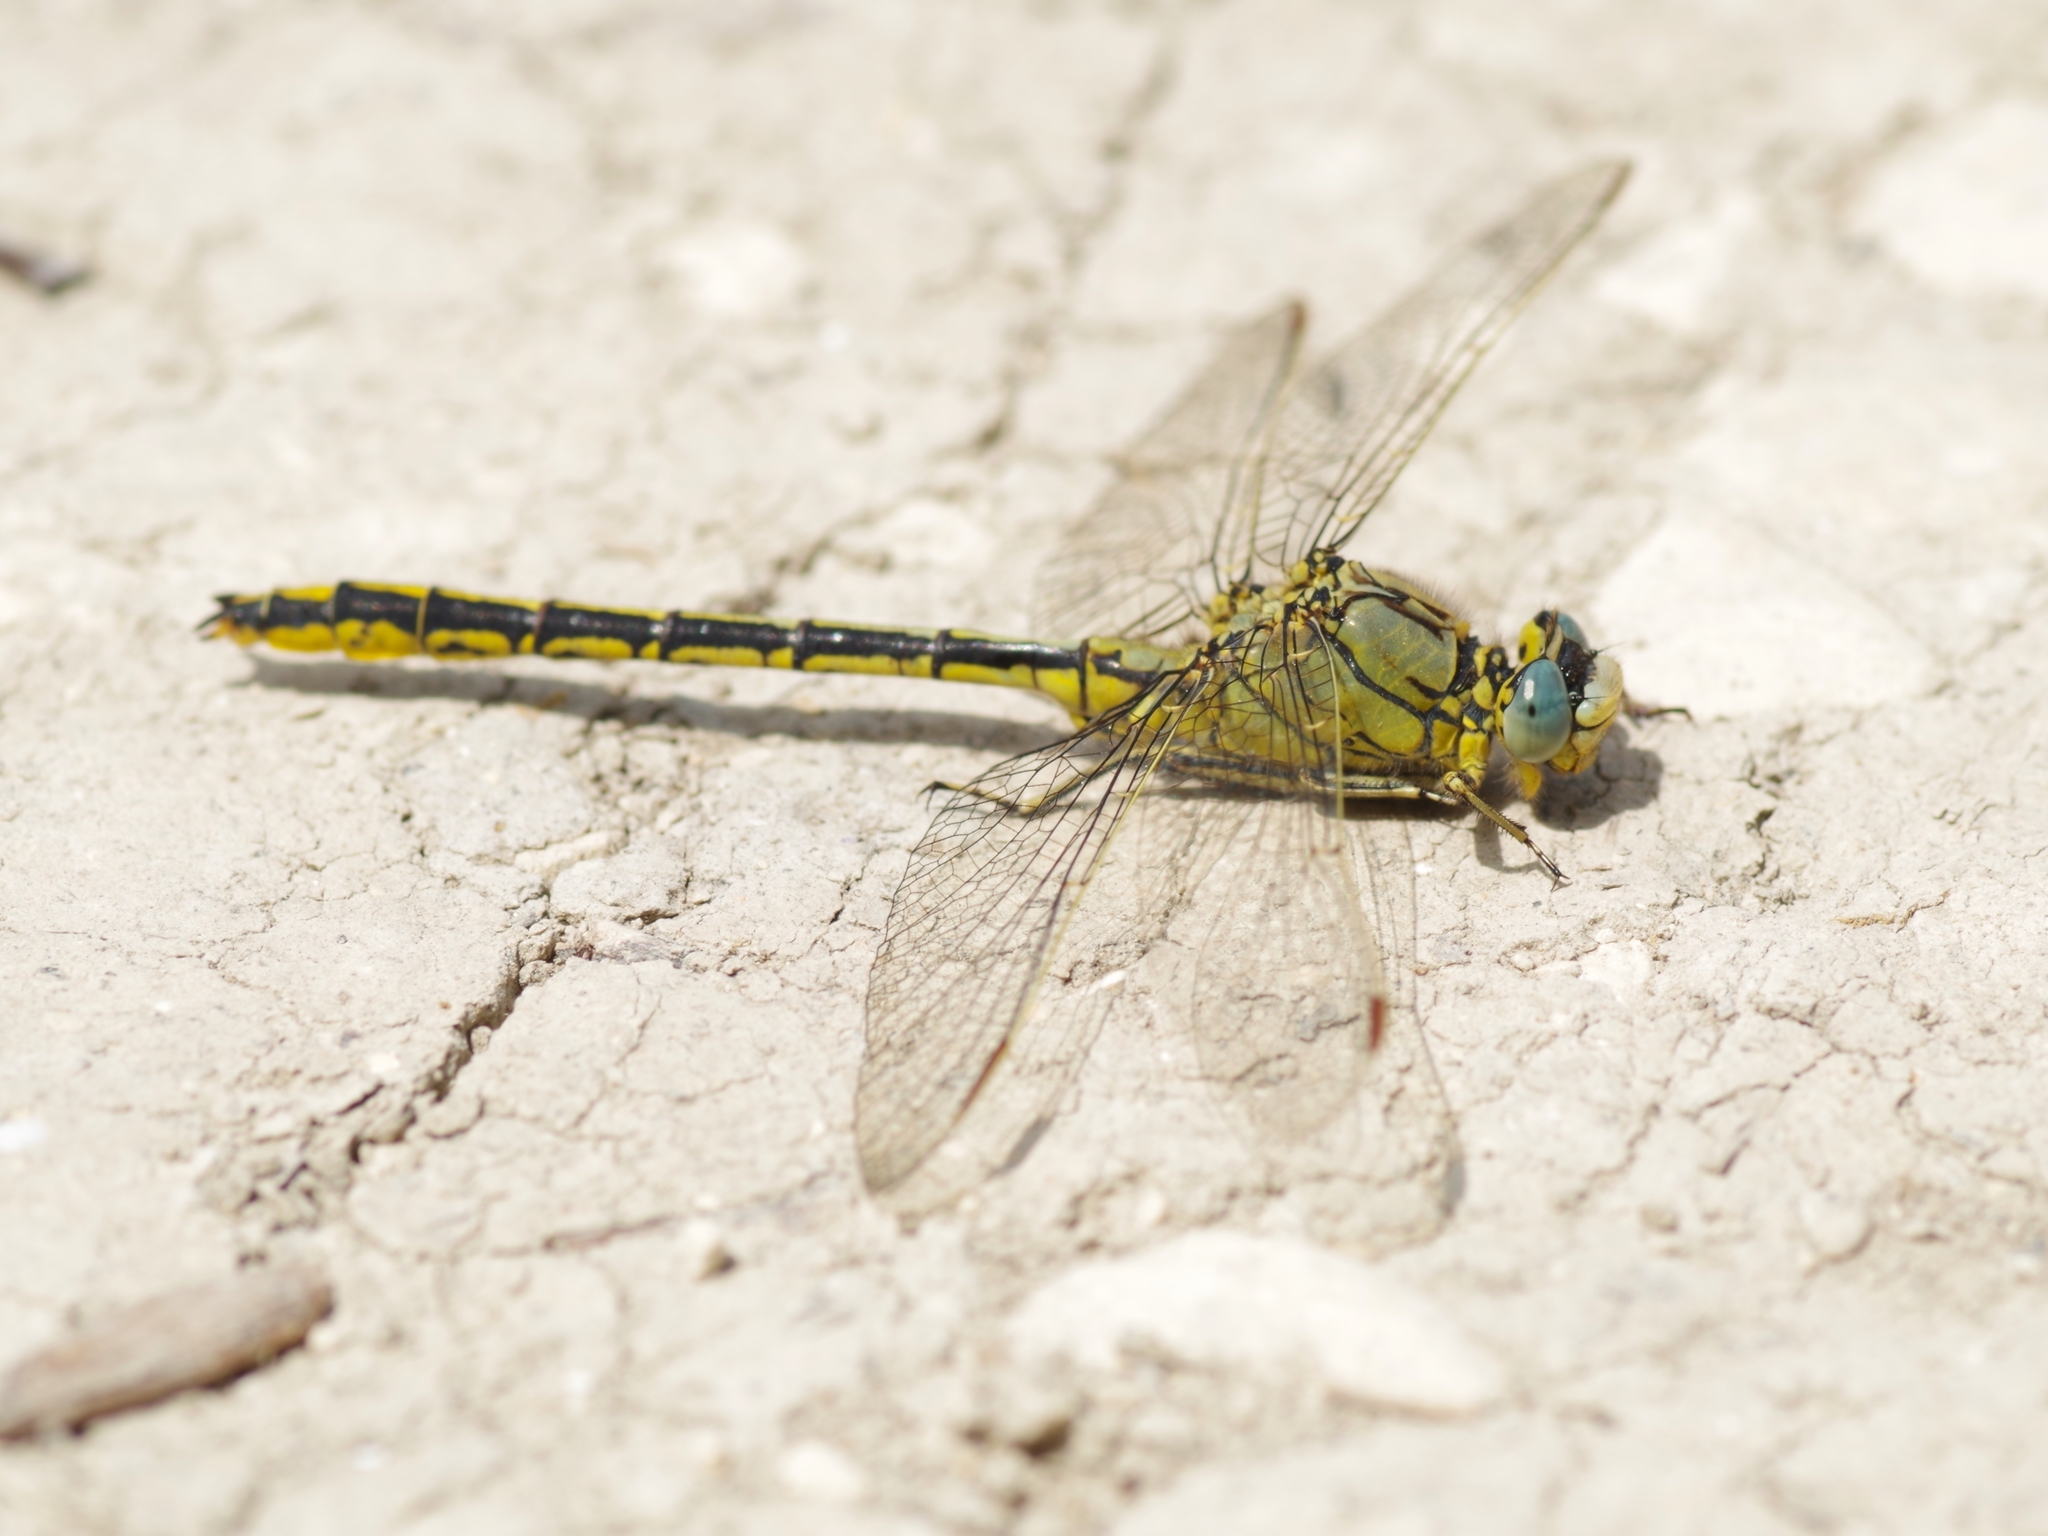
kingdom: Animalia
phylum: Arthropoda
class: Insecta
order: Odonata
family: Gomphidae
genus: Gomphus
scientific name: Gomphus pulchellus
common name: Western clubtail
